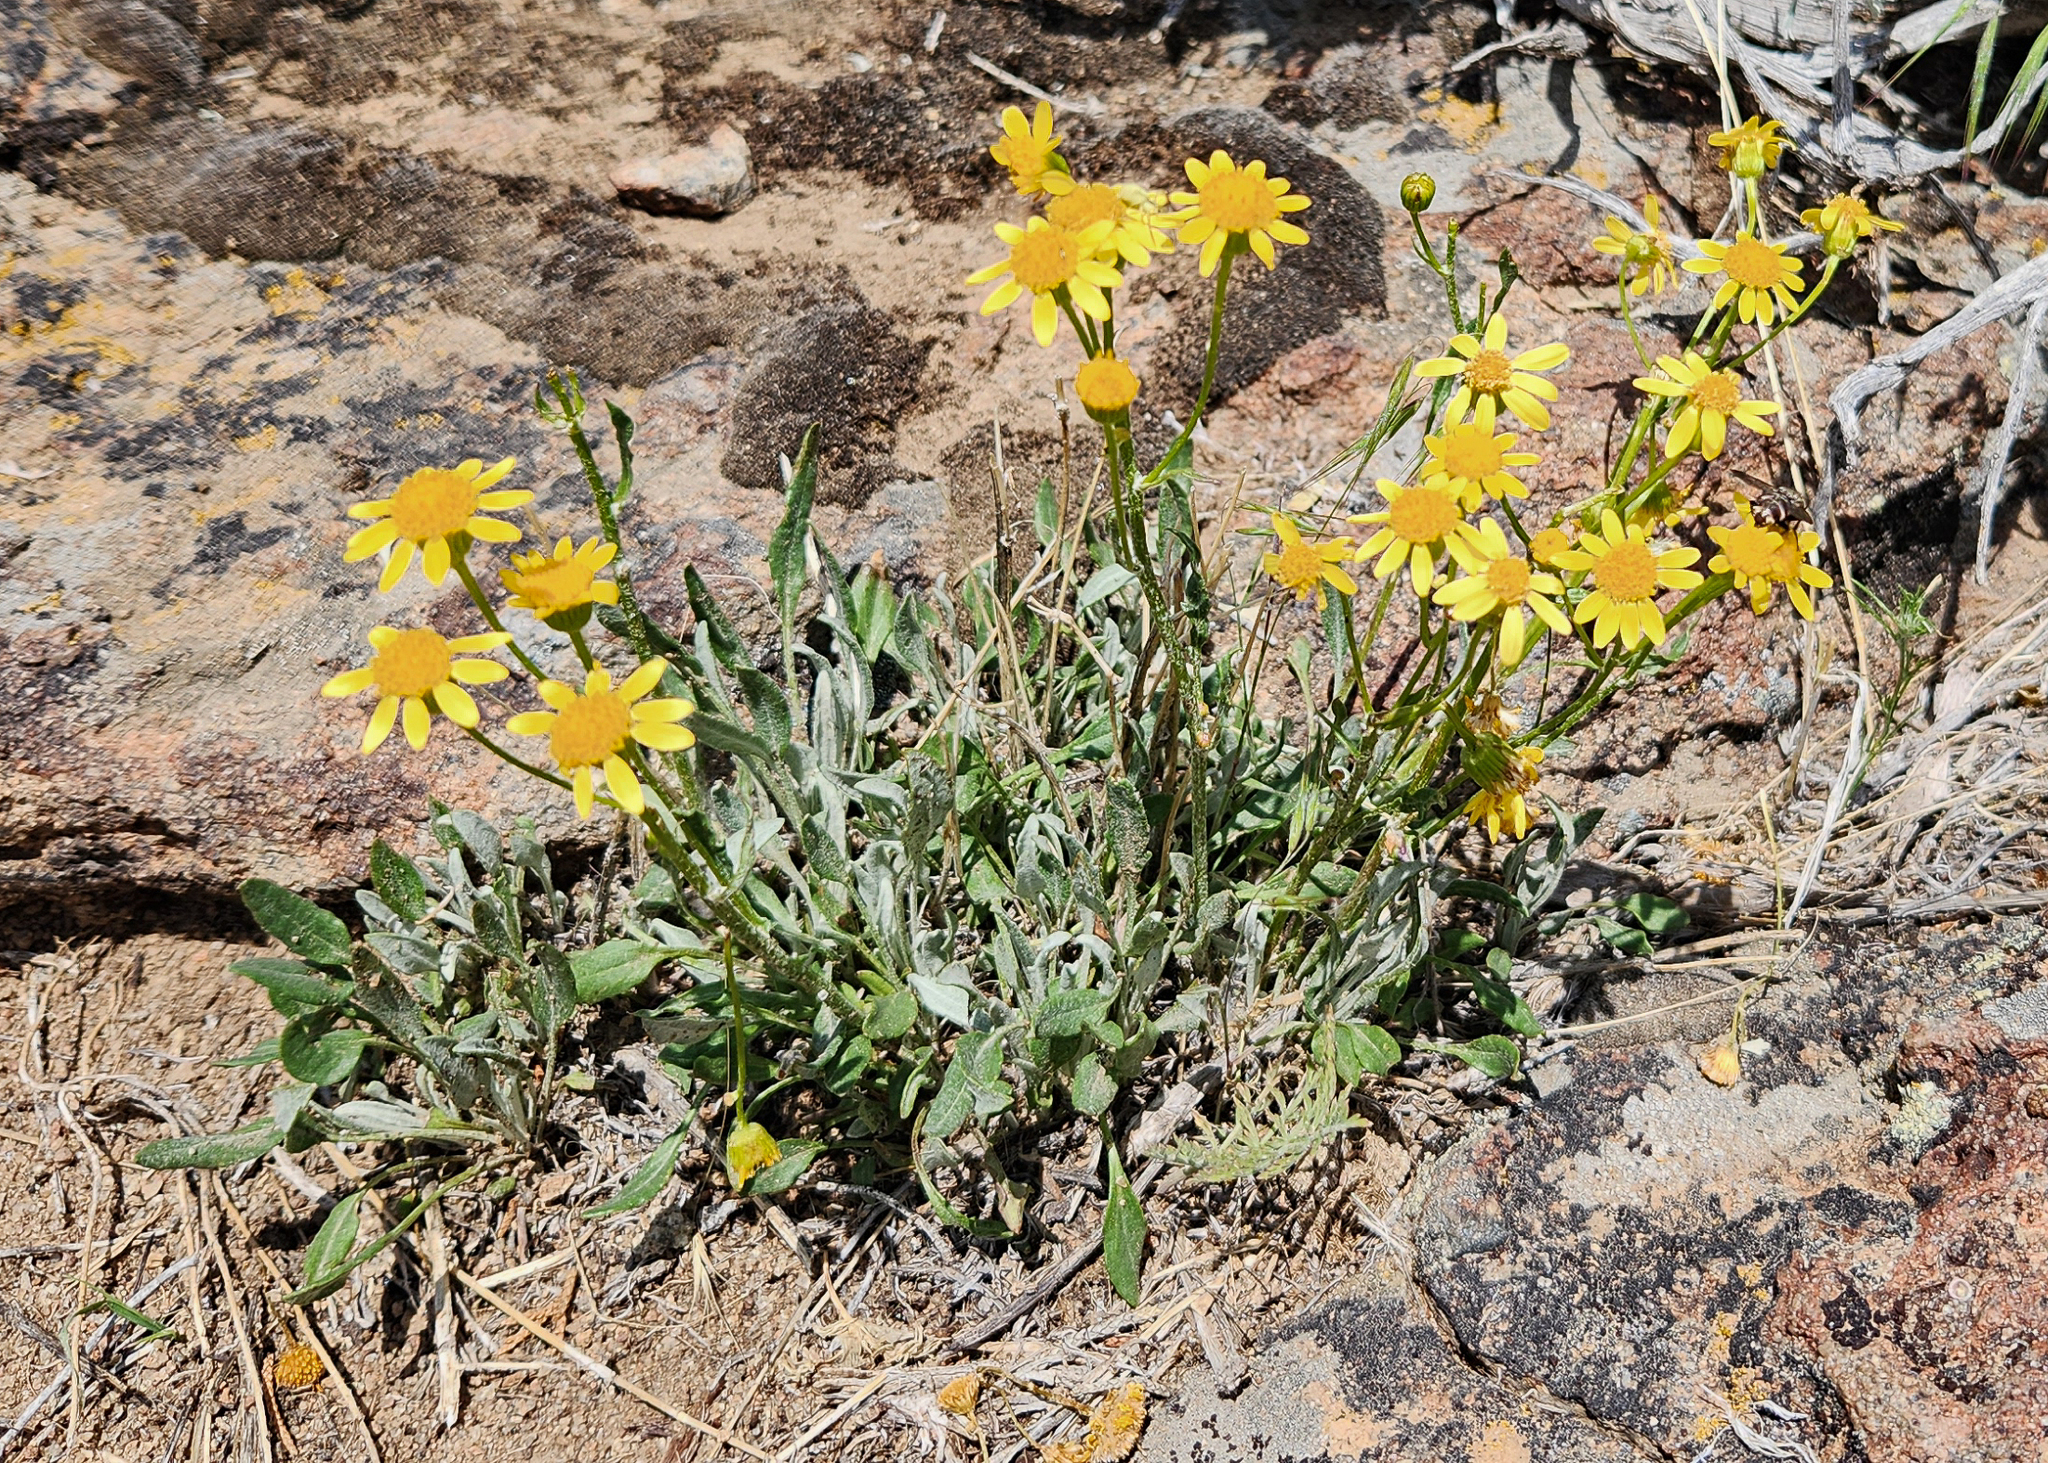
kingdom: Plantae
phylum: Tracheophyta
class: Magnoliopsida
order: Asterales
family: Asteraceae
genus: Packera
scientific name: Packera cana
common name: Woolly groundsel
